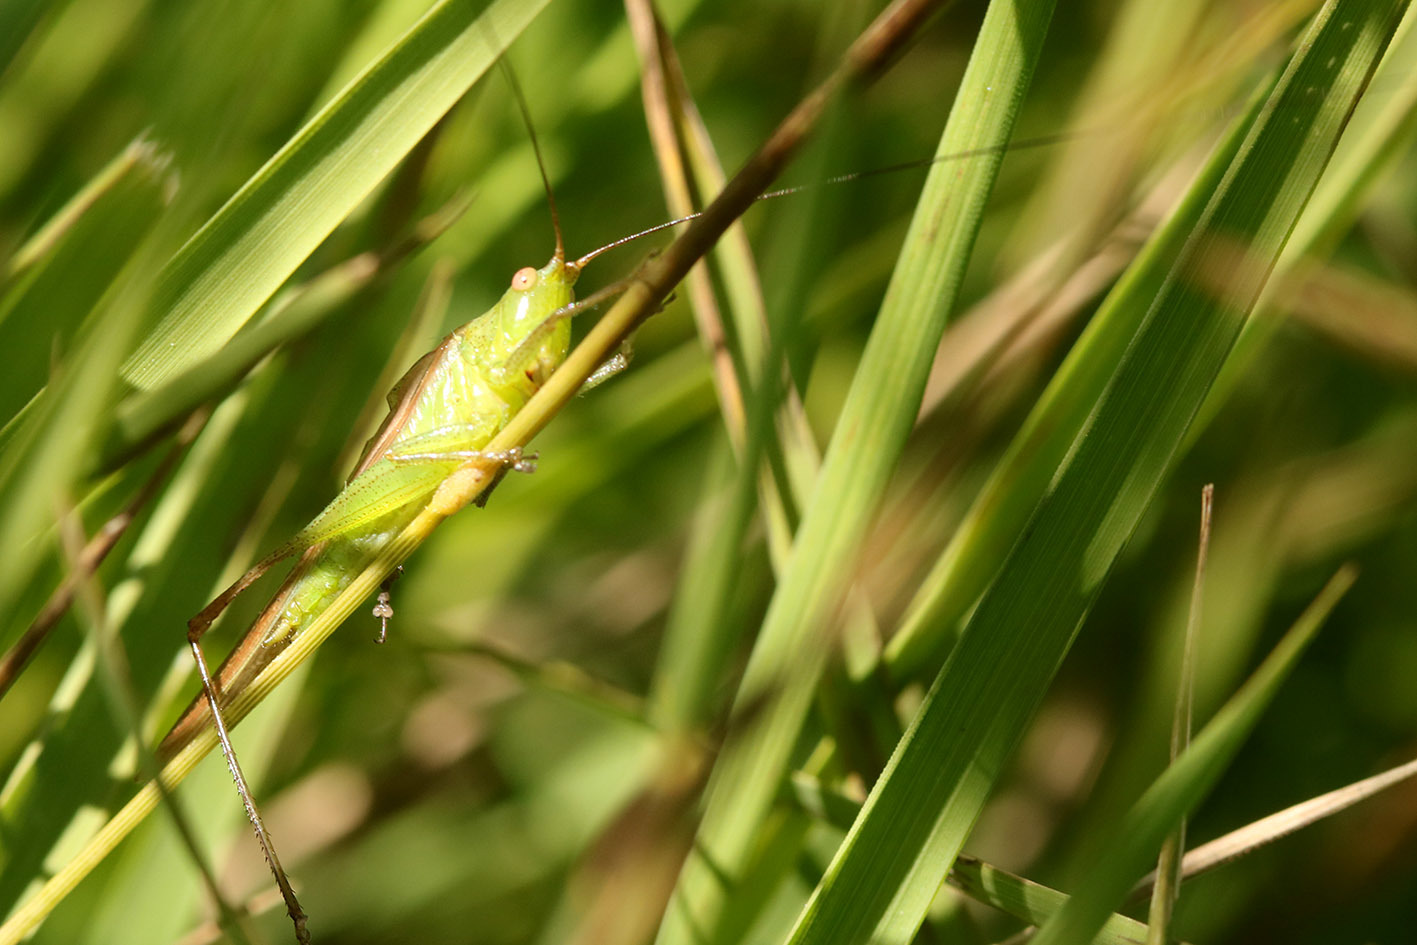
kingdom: Animalia
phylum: Arthropoda
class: Insecta
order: Orthoptera
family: Tettigoniidae
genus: Conocephalus
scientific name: Conocephalus longipes
